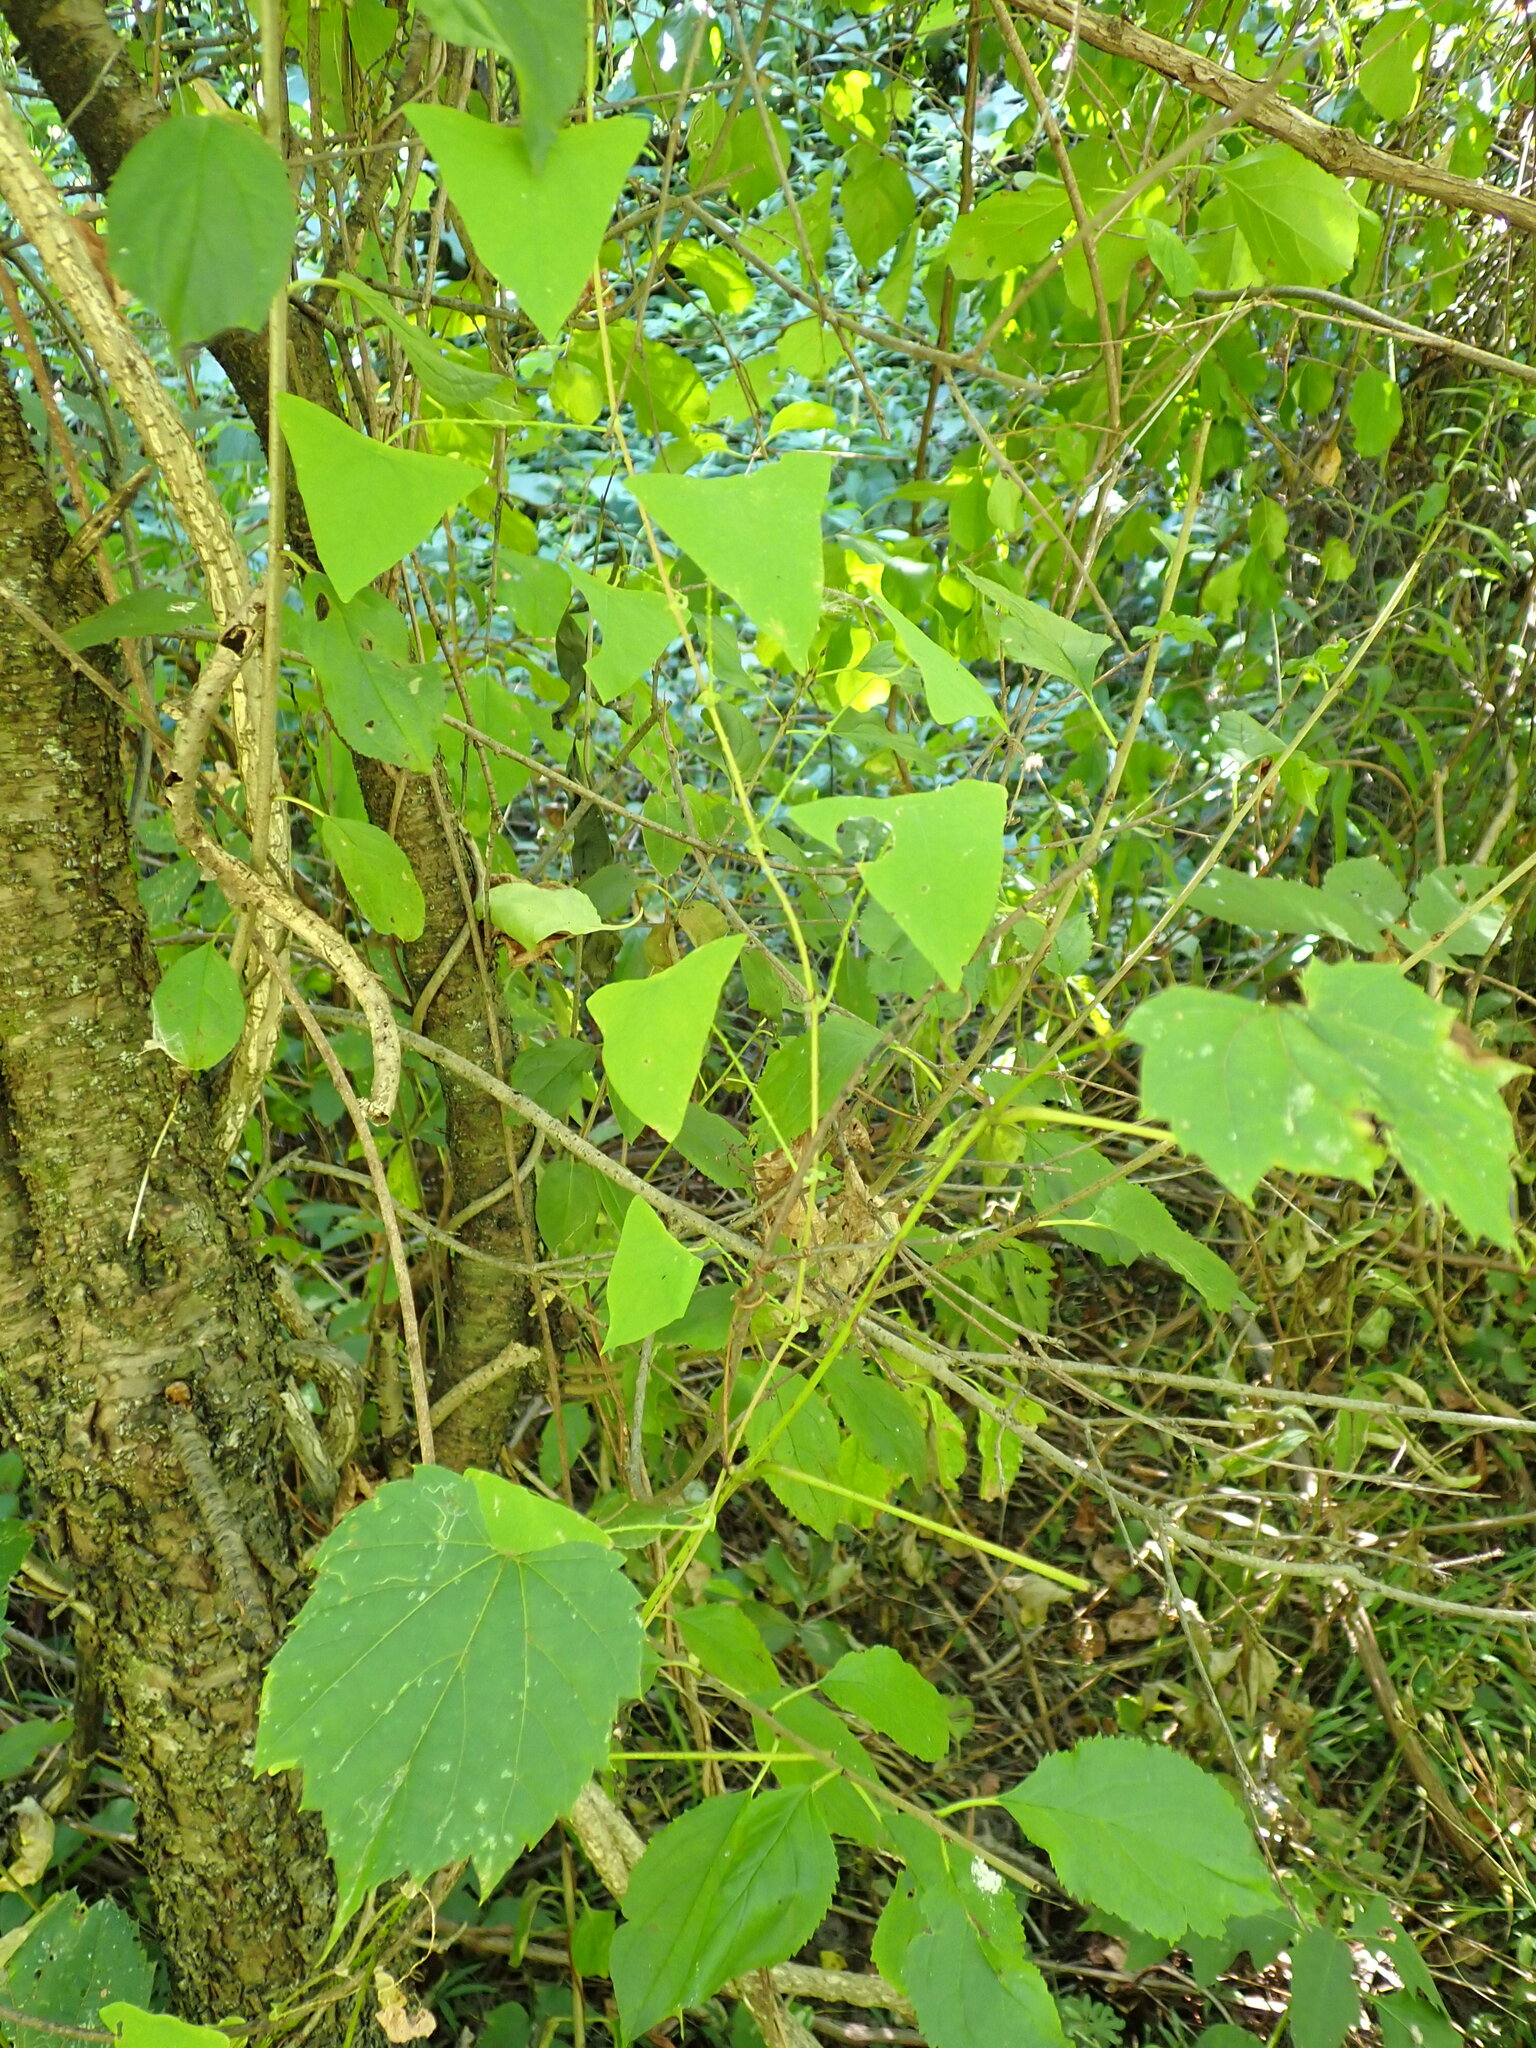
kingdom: Plantae
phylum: Tracheophyta
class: Magnoliopsida
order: Caryophyllales
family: Polygonaceae
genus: Persicaria
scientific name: Persicaria perfoliata
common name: Asiatic tearthumb
